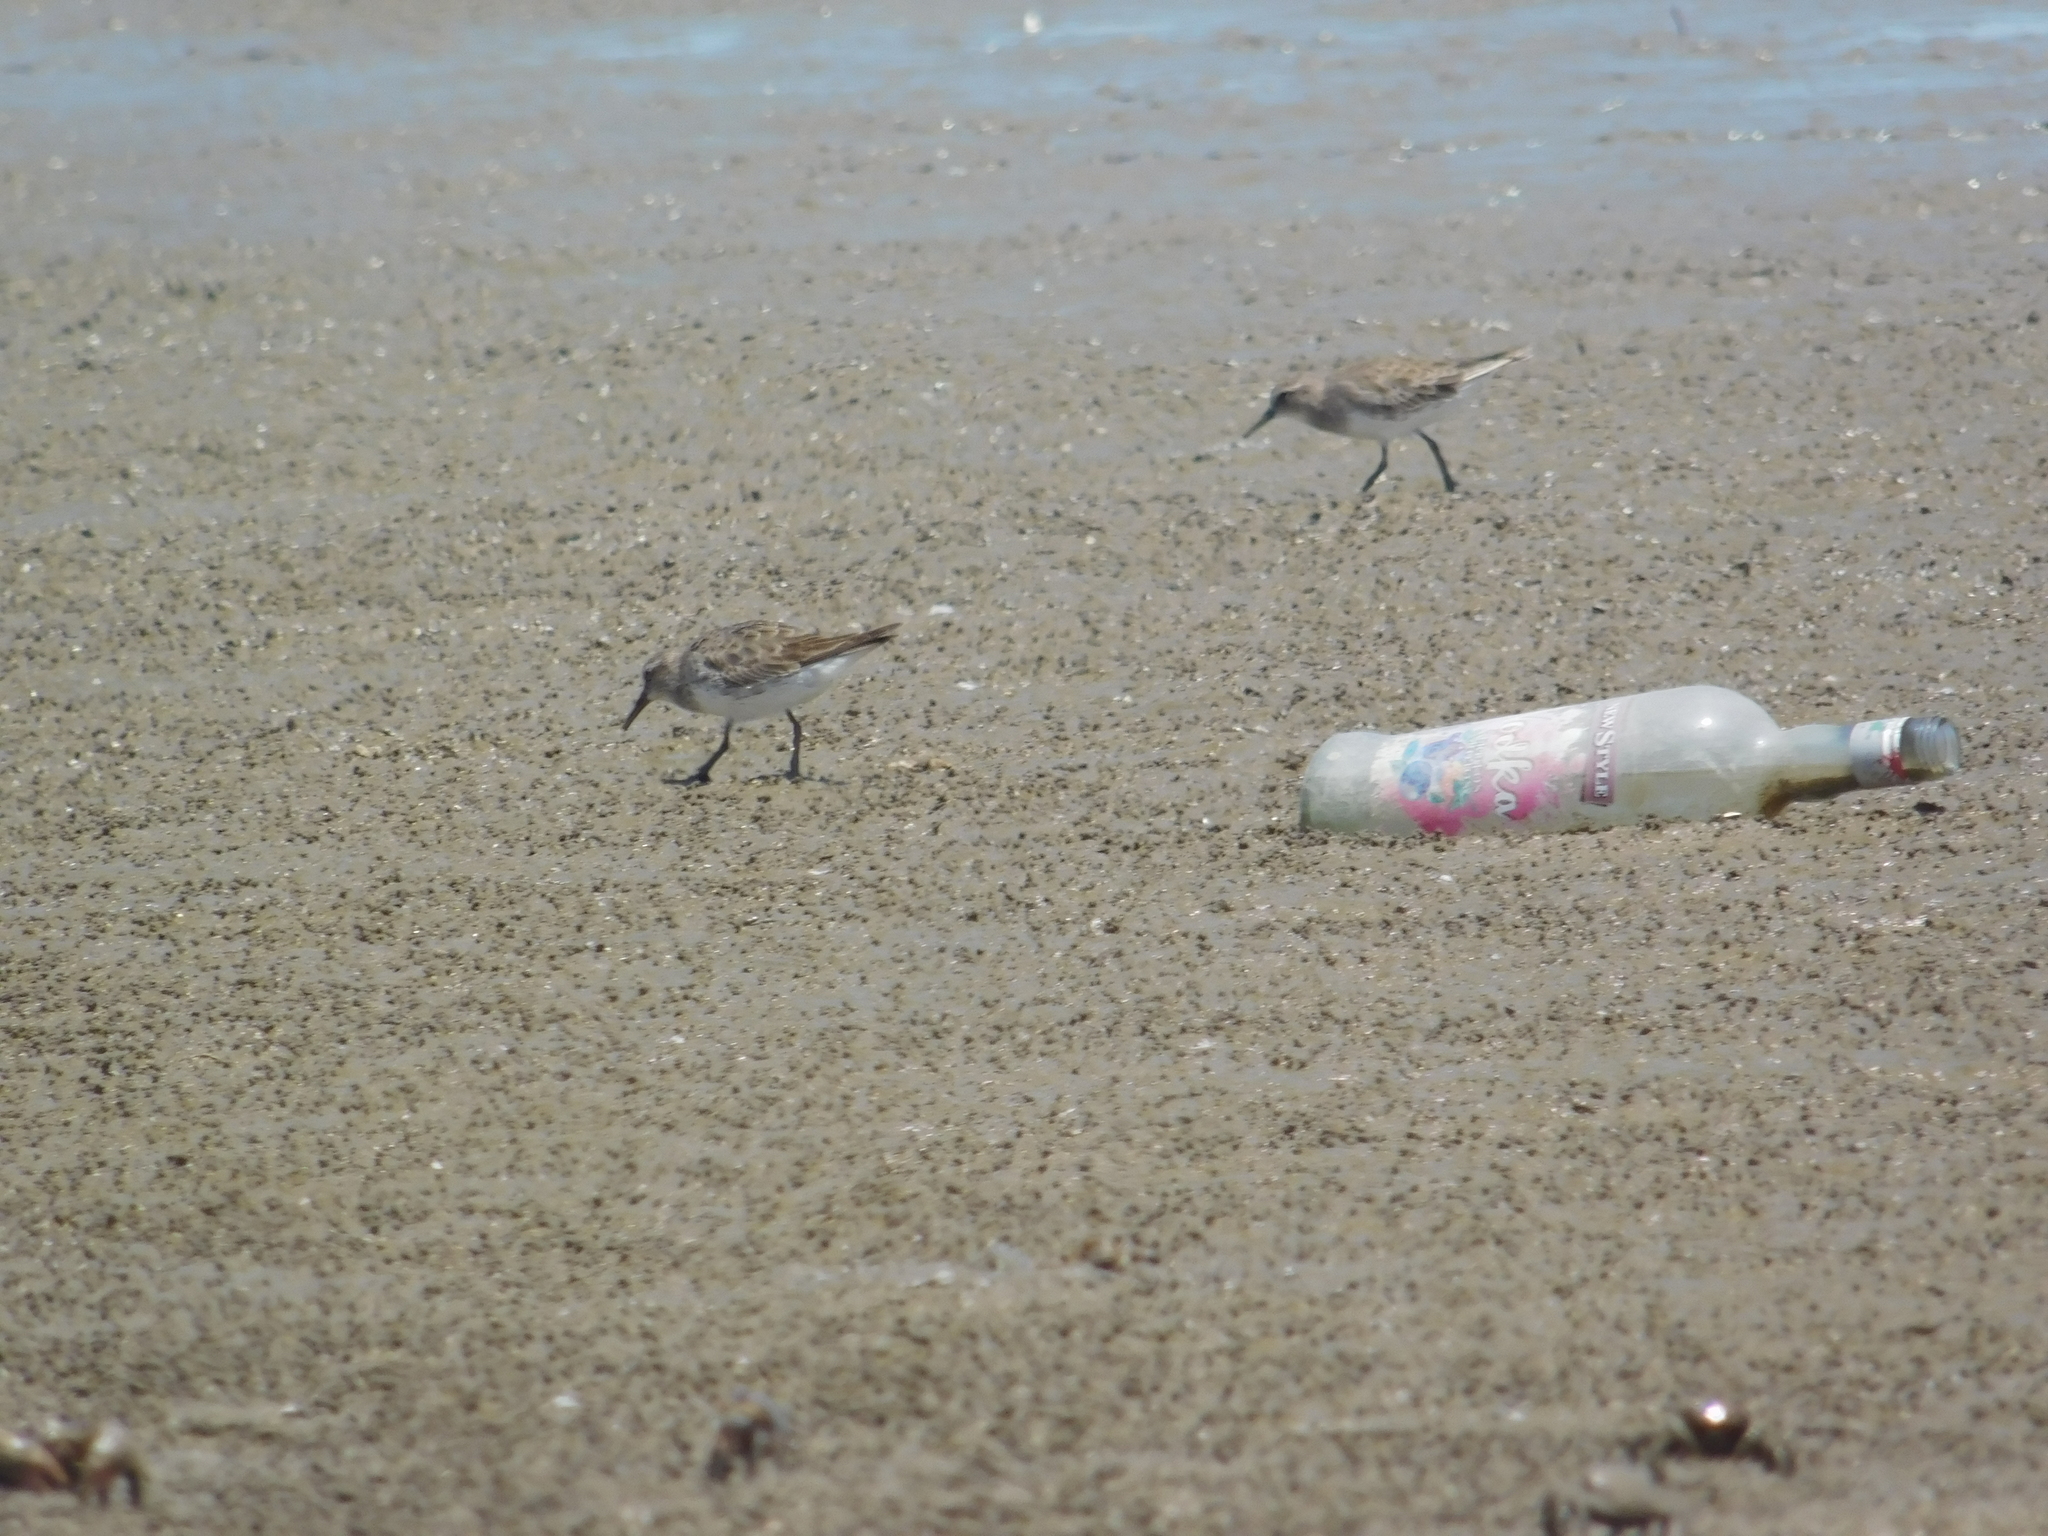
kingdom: Animalia
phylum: Chordata
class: Aves
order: Charadriiformes
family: Scolopacidae
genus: Calidris
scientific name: Calidris fuscicollis
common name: White-rumped sandpiper
